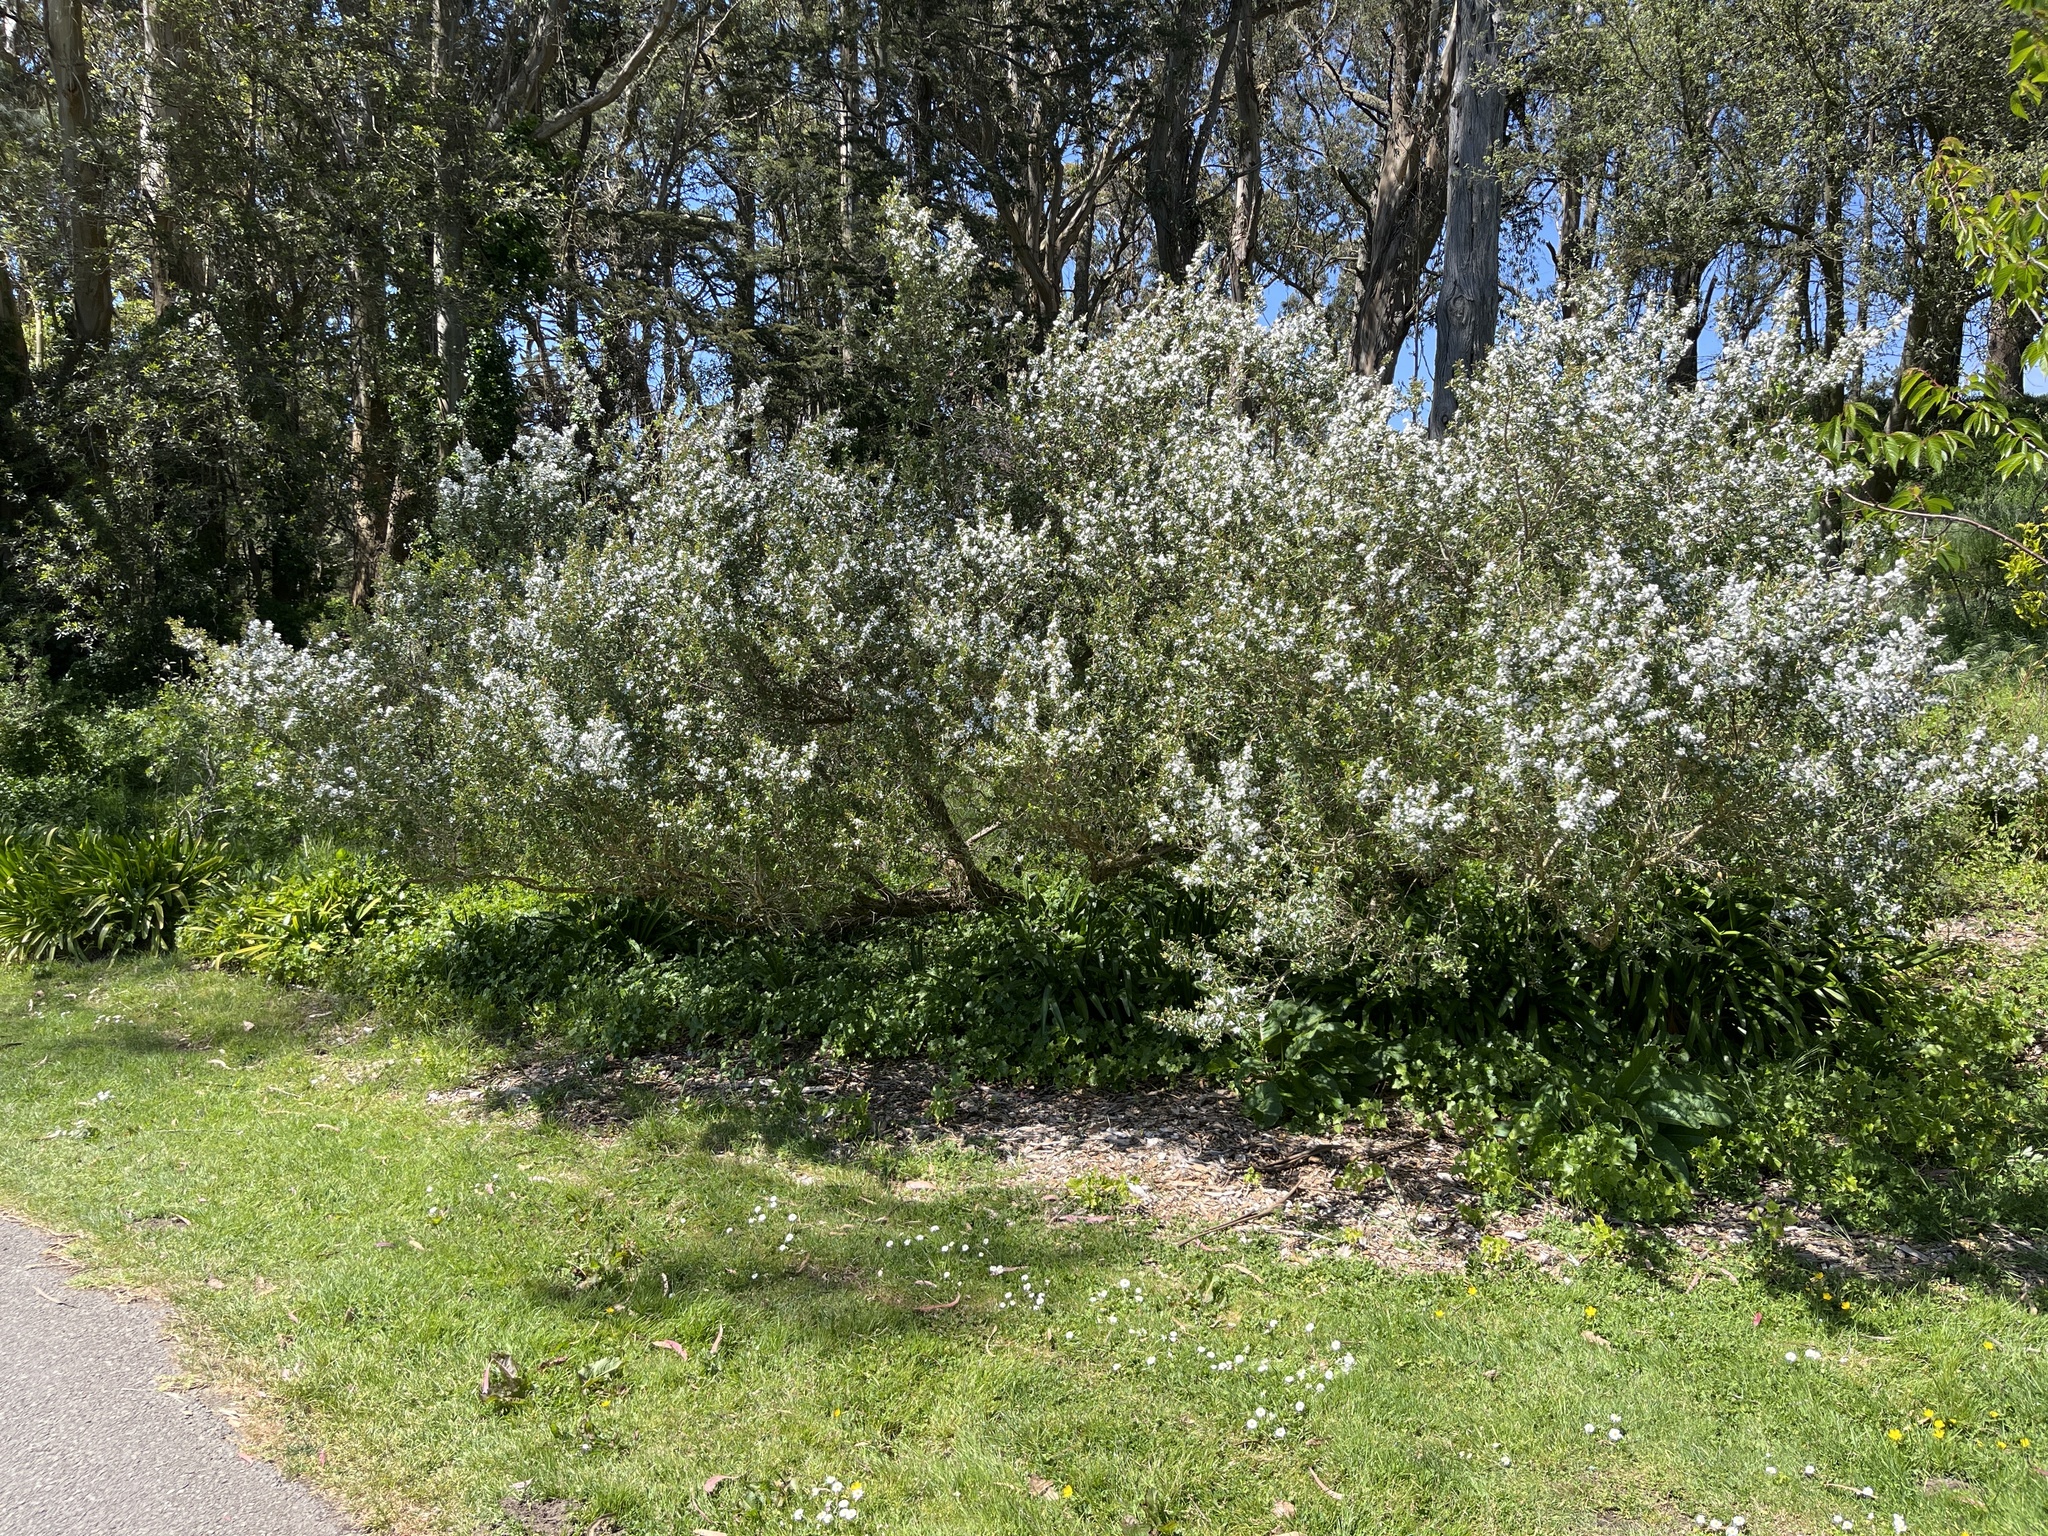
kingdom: Plantae
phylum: Tracheophyta
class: Magnoliopsida
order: Myrtales
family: Myrtaceae
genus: Leptospermum
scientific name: Leptospermum laevigatum
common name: Australian teatree
